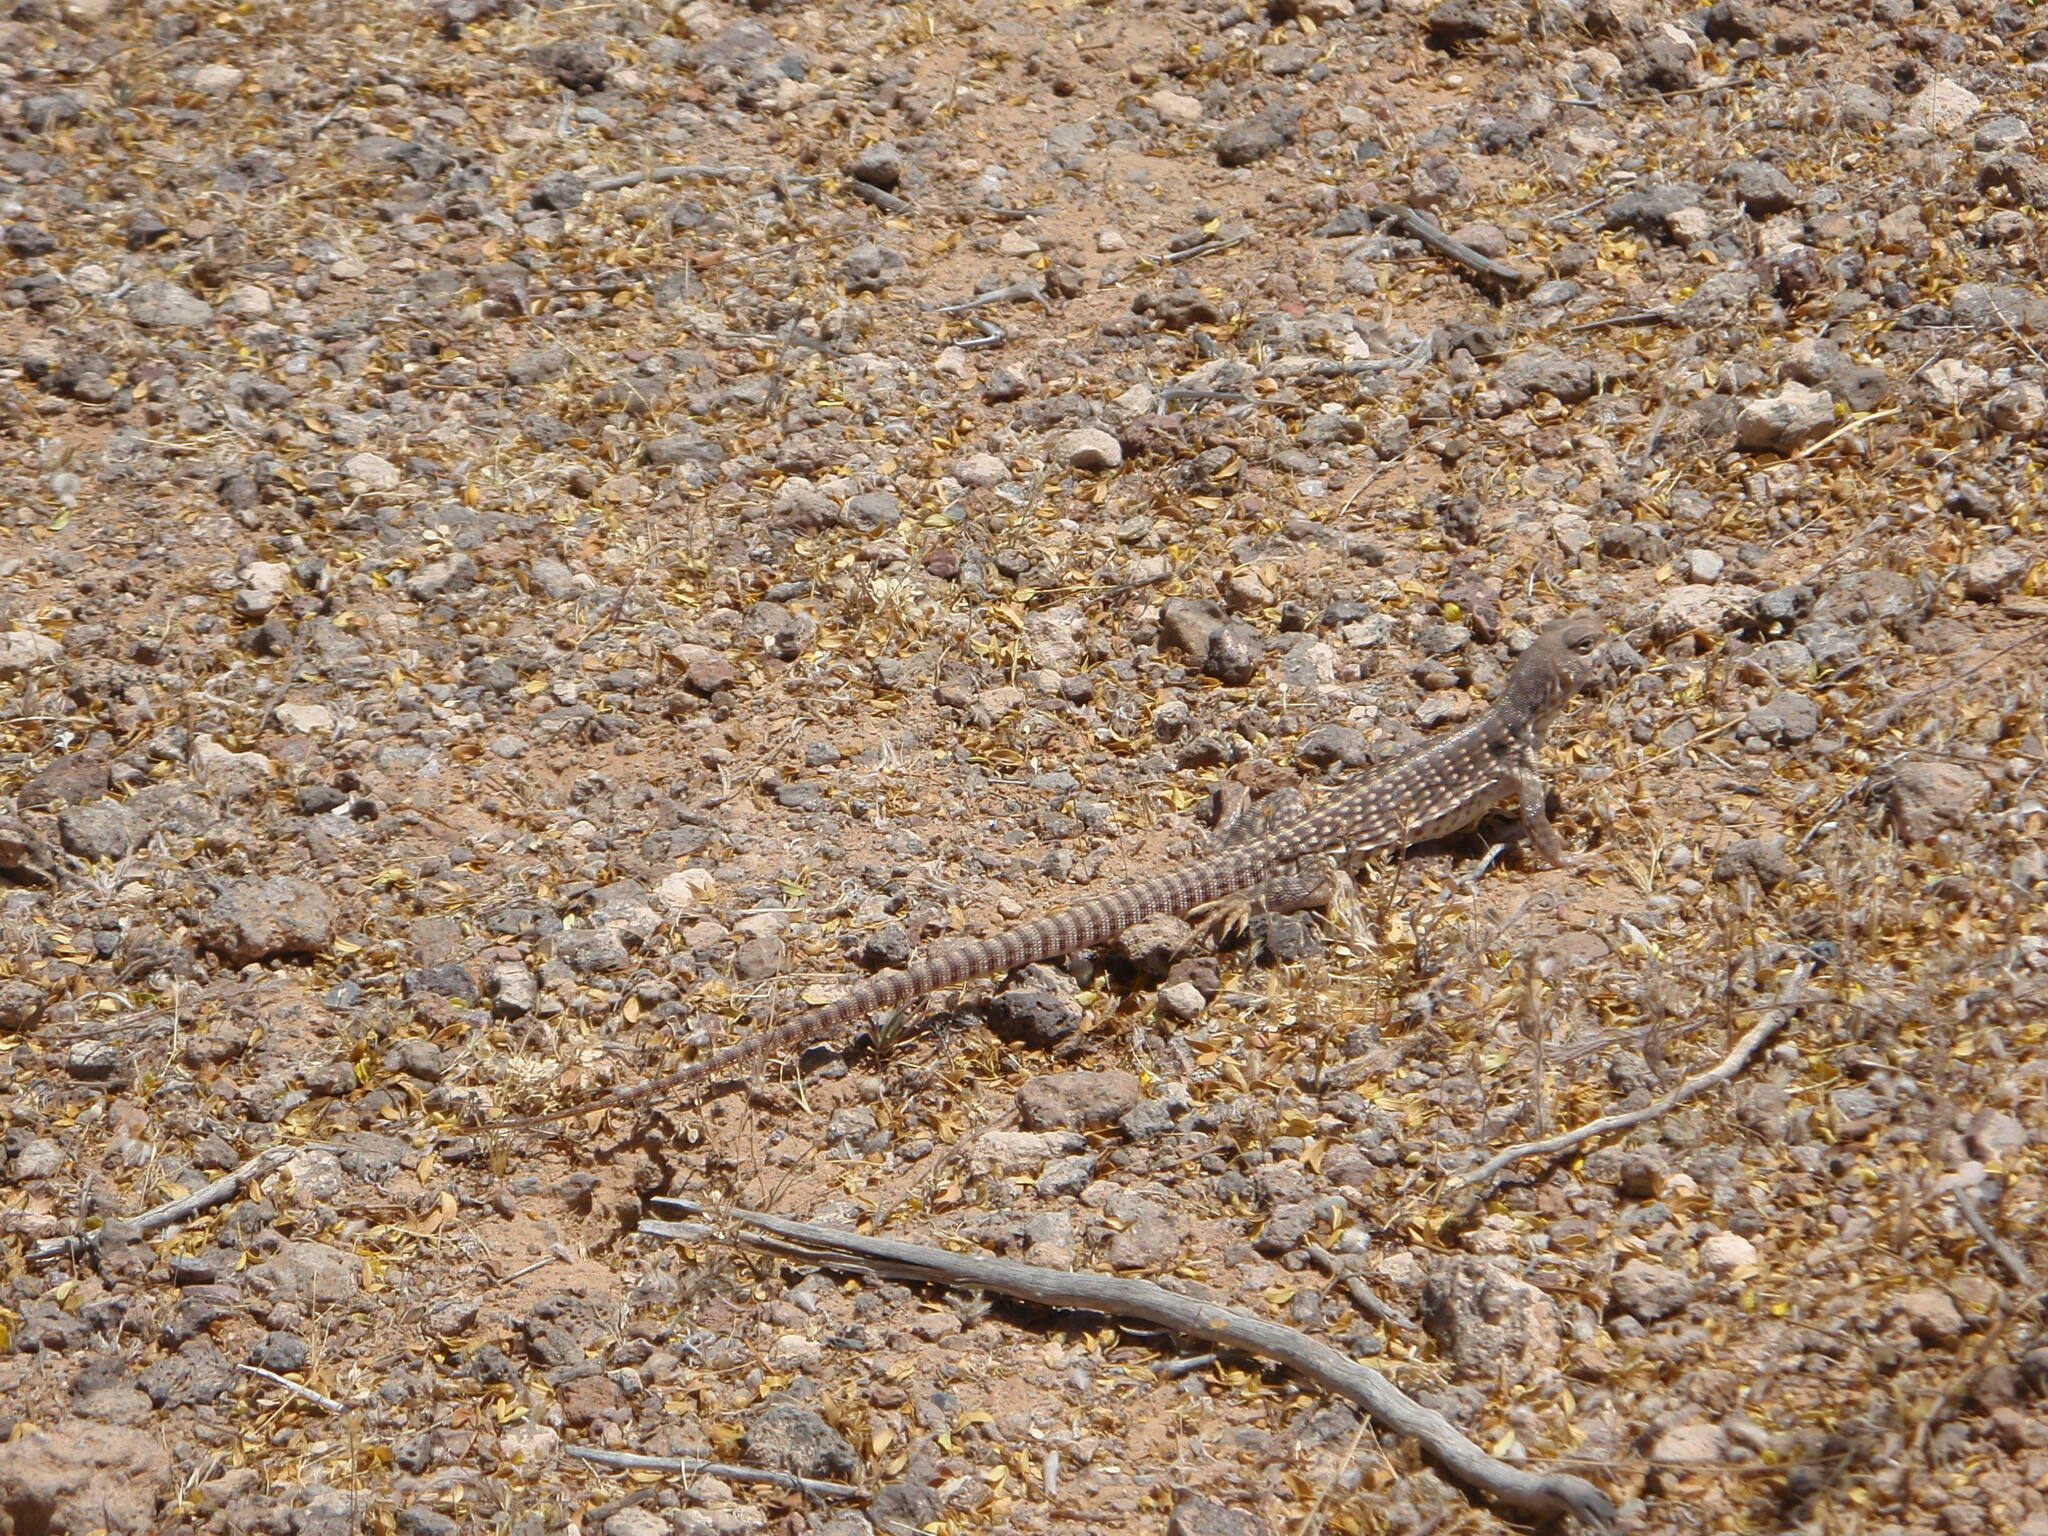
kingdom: Animalia
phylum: Chordata
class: Squamata
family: Iguanidae
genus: Dipsosaurus
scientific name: Dipsosaurus dorsalis
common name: Desert iguana
